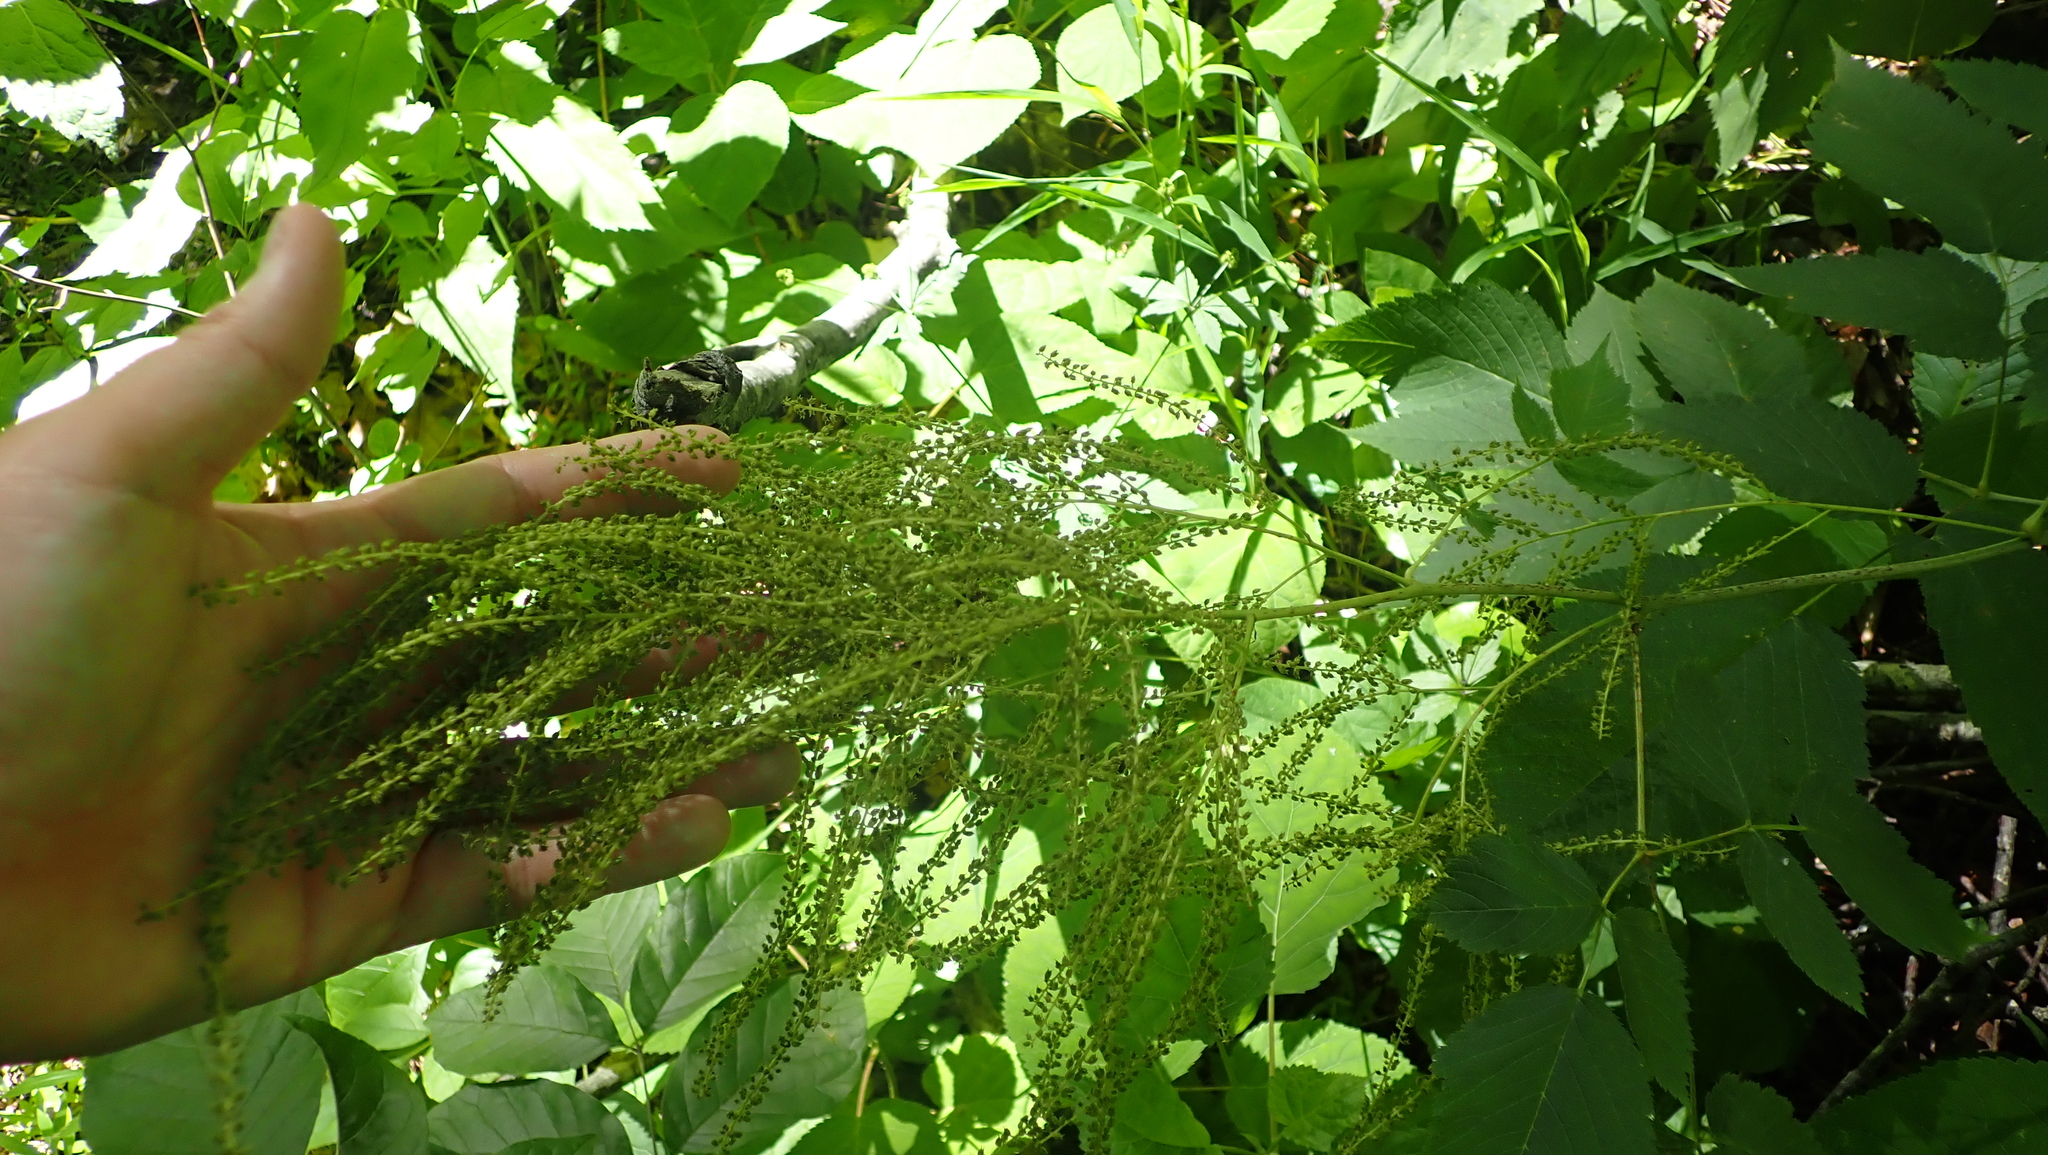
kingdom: Plantae
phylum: Tracheophyta
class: Magnoliopsida
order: Rosales
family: Rosaceae
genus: Aruncus
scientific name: Aruncus dioicus
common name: Buck's-beard
